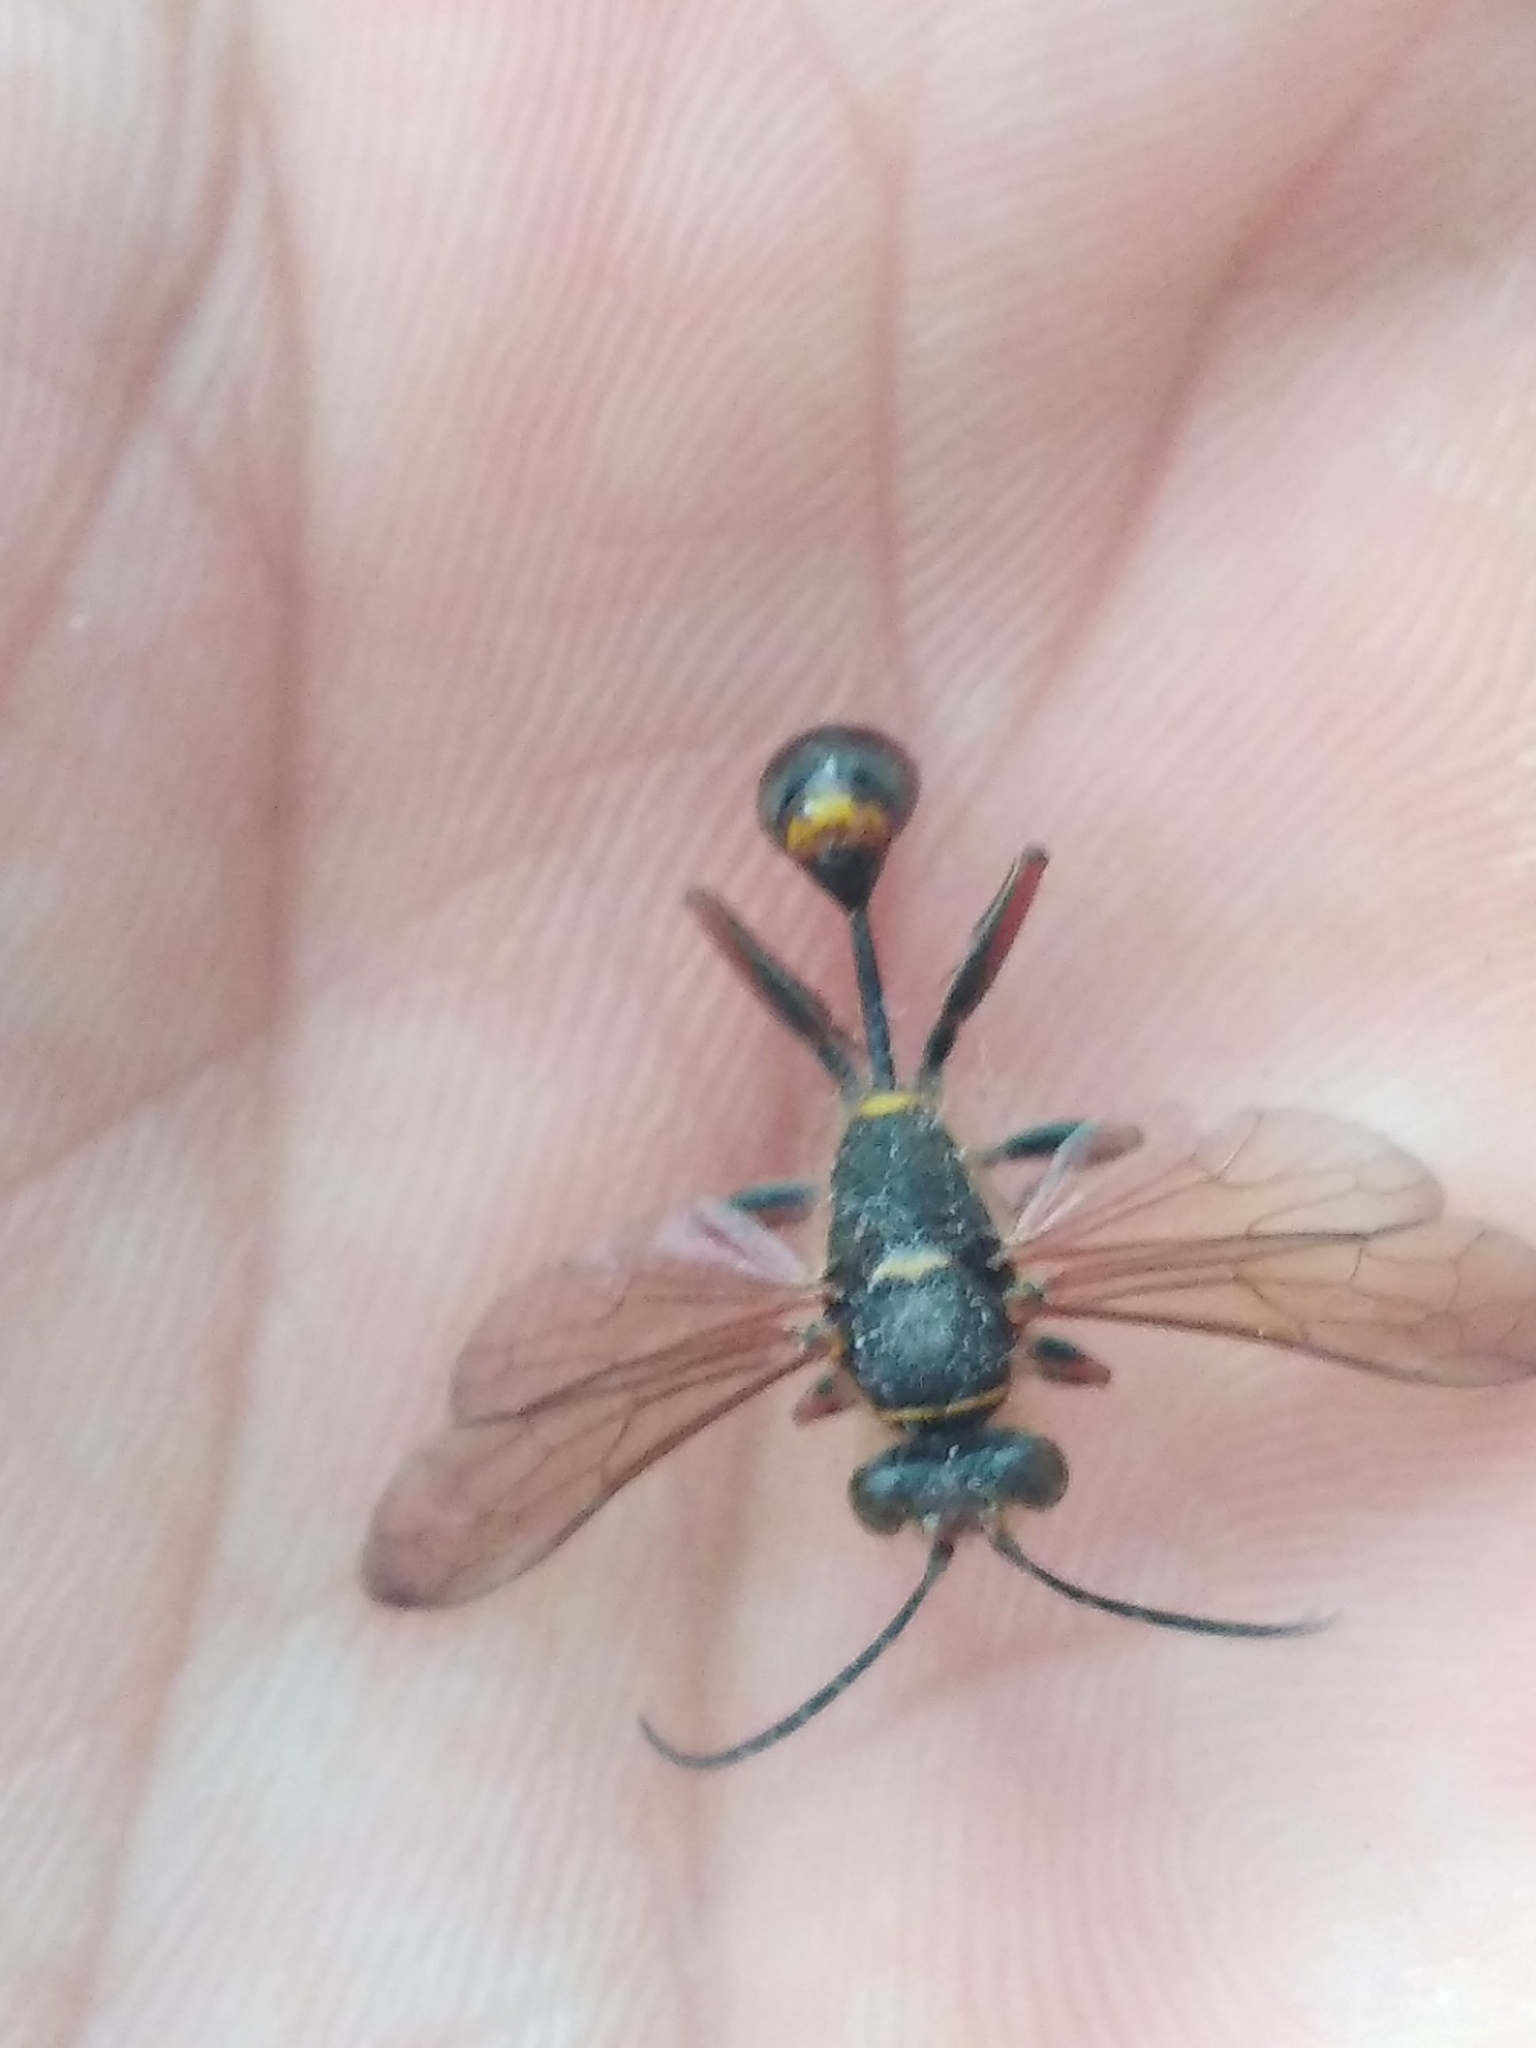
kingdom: Animalia
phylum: Arthropoda
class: Insecta
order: Hymenoptera
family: Sphecidae
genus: Sceliphron
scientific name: Sceliphron curvatum
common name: Pèlopèe
